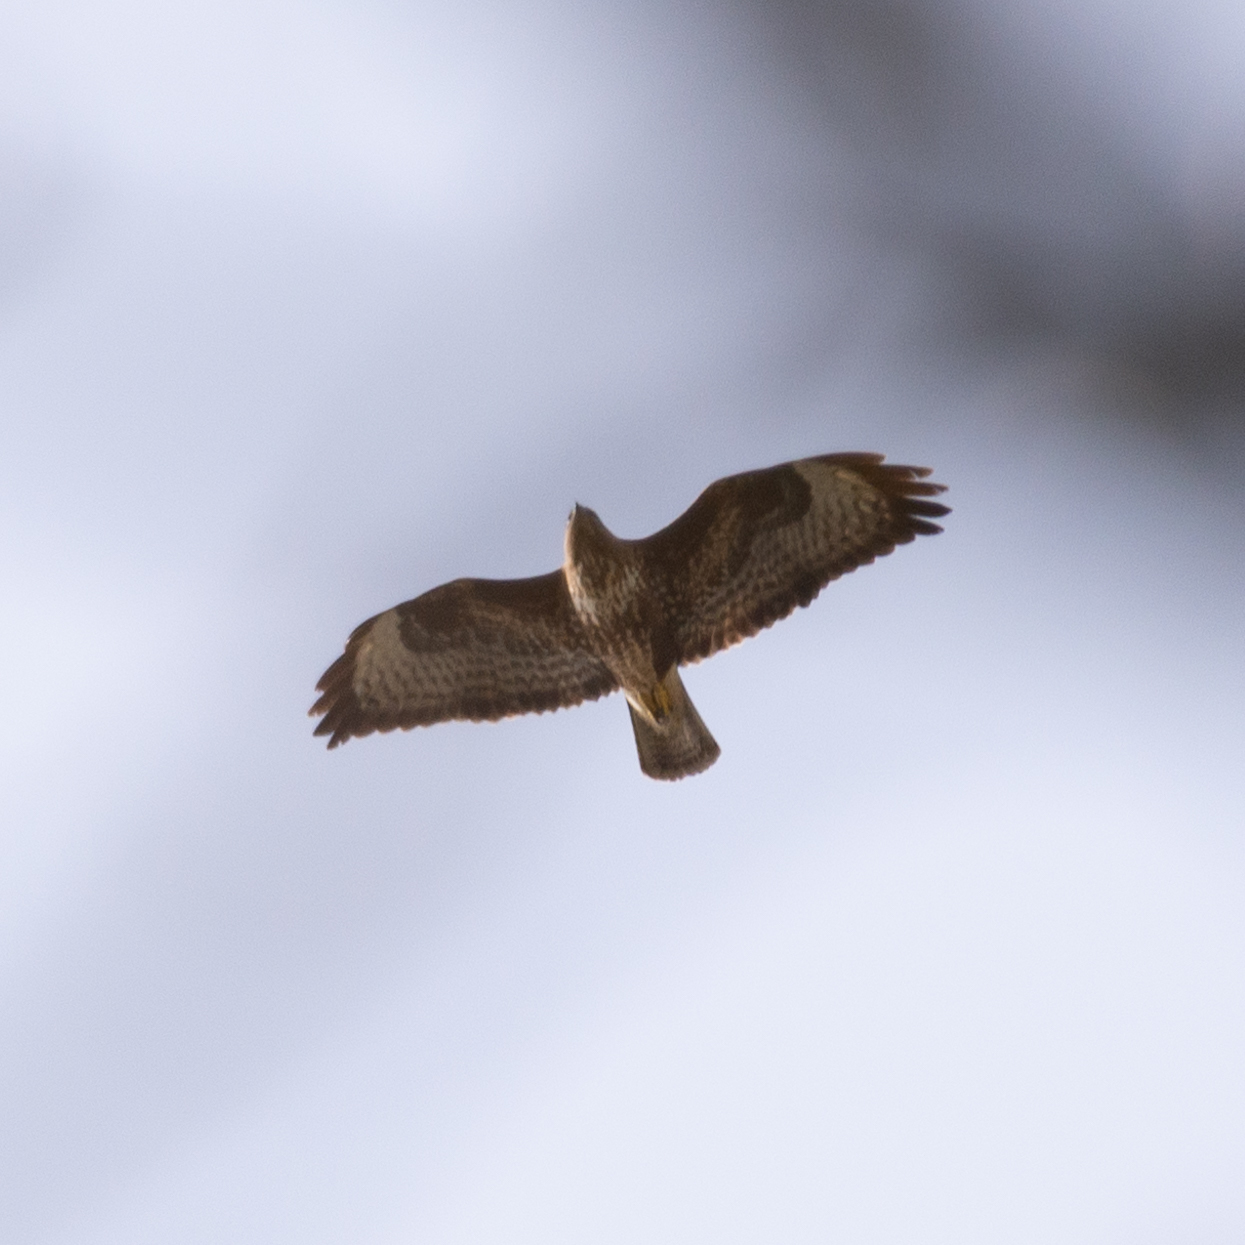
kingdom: Animalia
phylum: Chordata
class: Aves
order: Accipitriformes
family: Accipitridae
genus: Buteo
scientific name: Buteo buteo
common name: Common buzzard
